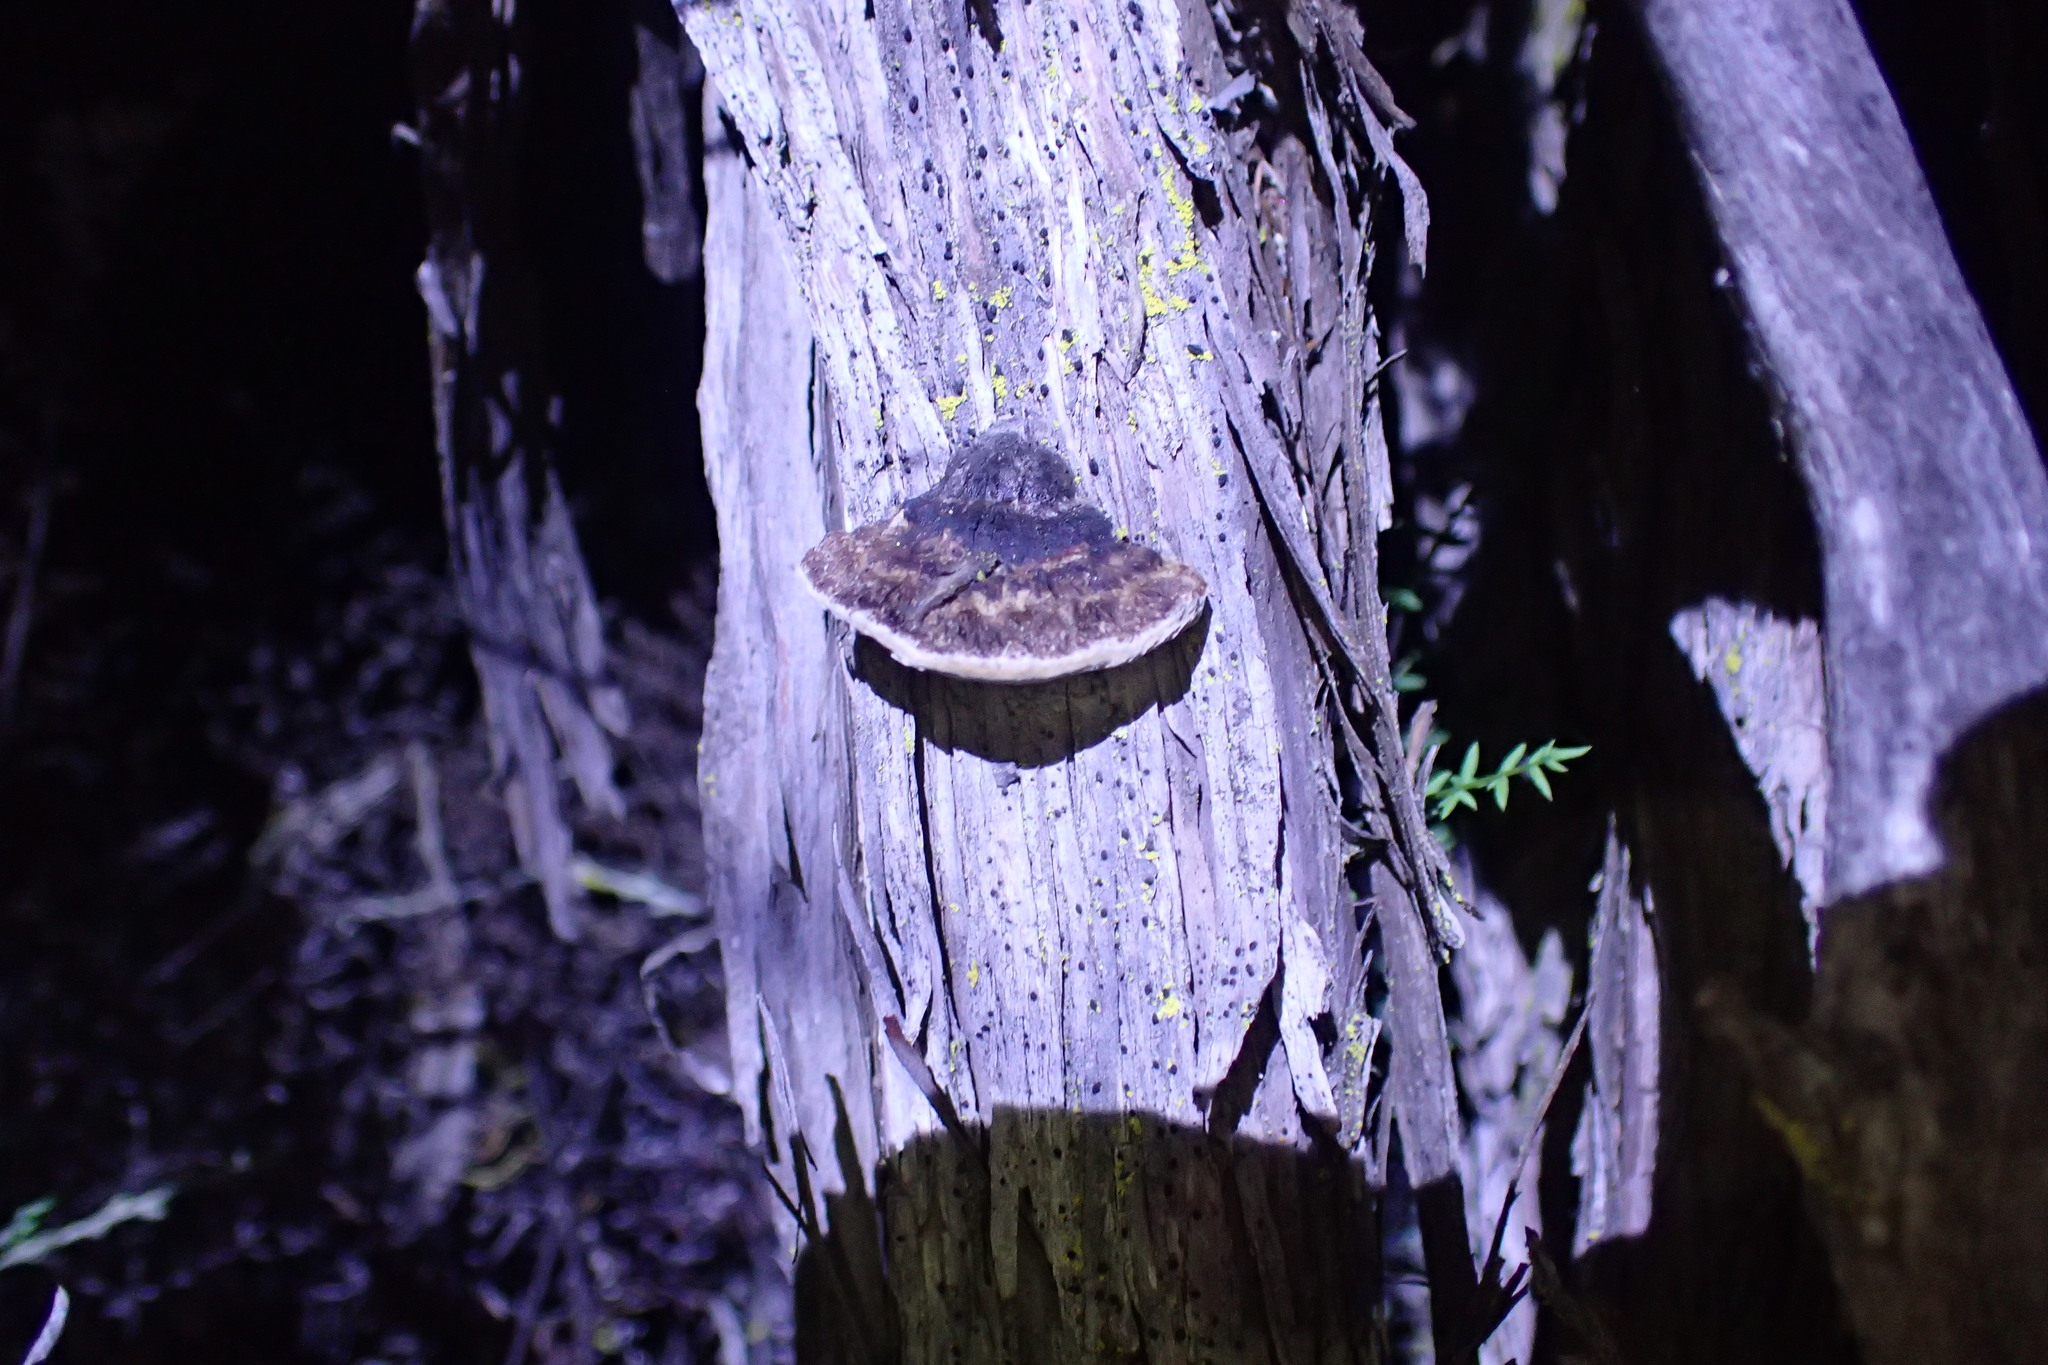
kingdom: Fungi
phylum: Basidiomycota
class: Agaricomycetes
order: Polyporales
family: Polyporaceae
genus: Fomes
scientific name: Fomes arctostaphyli
